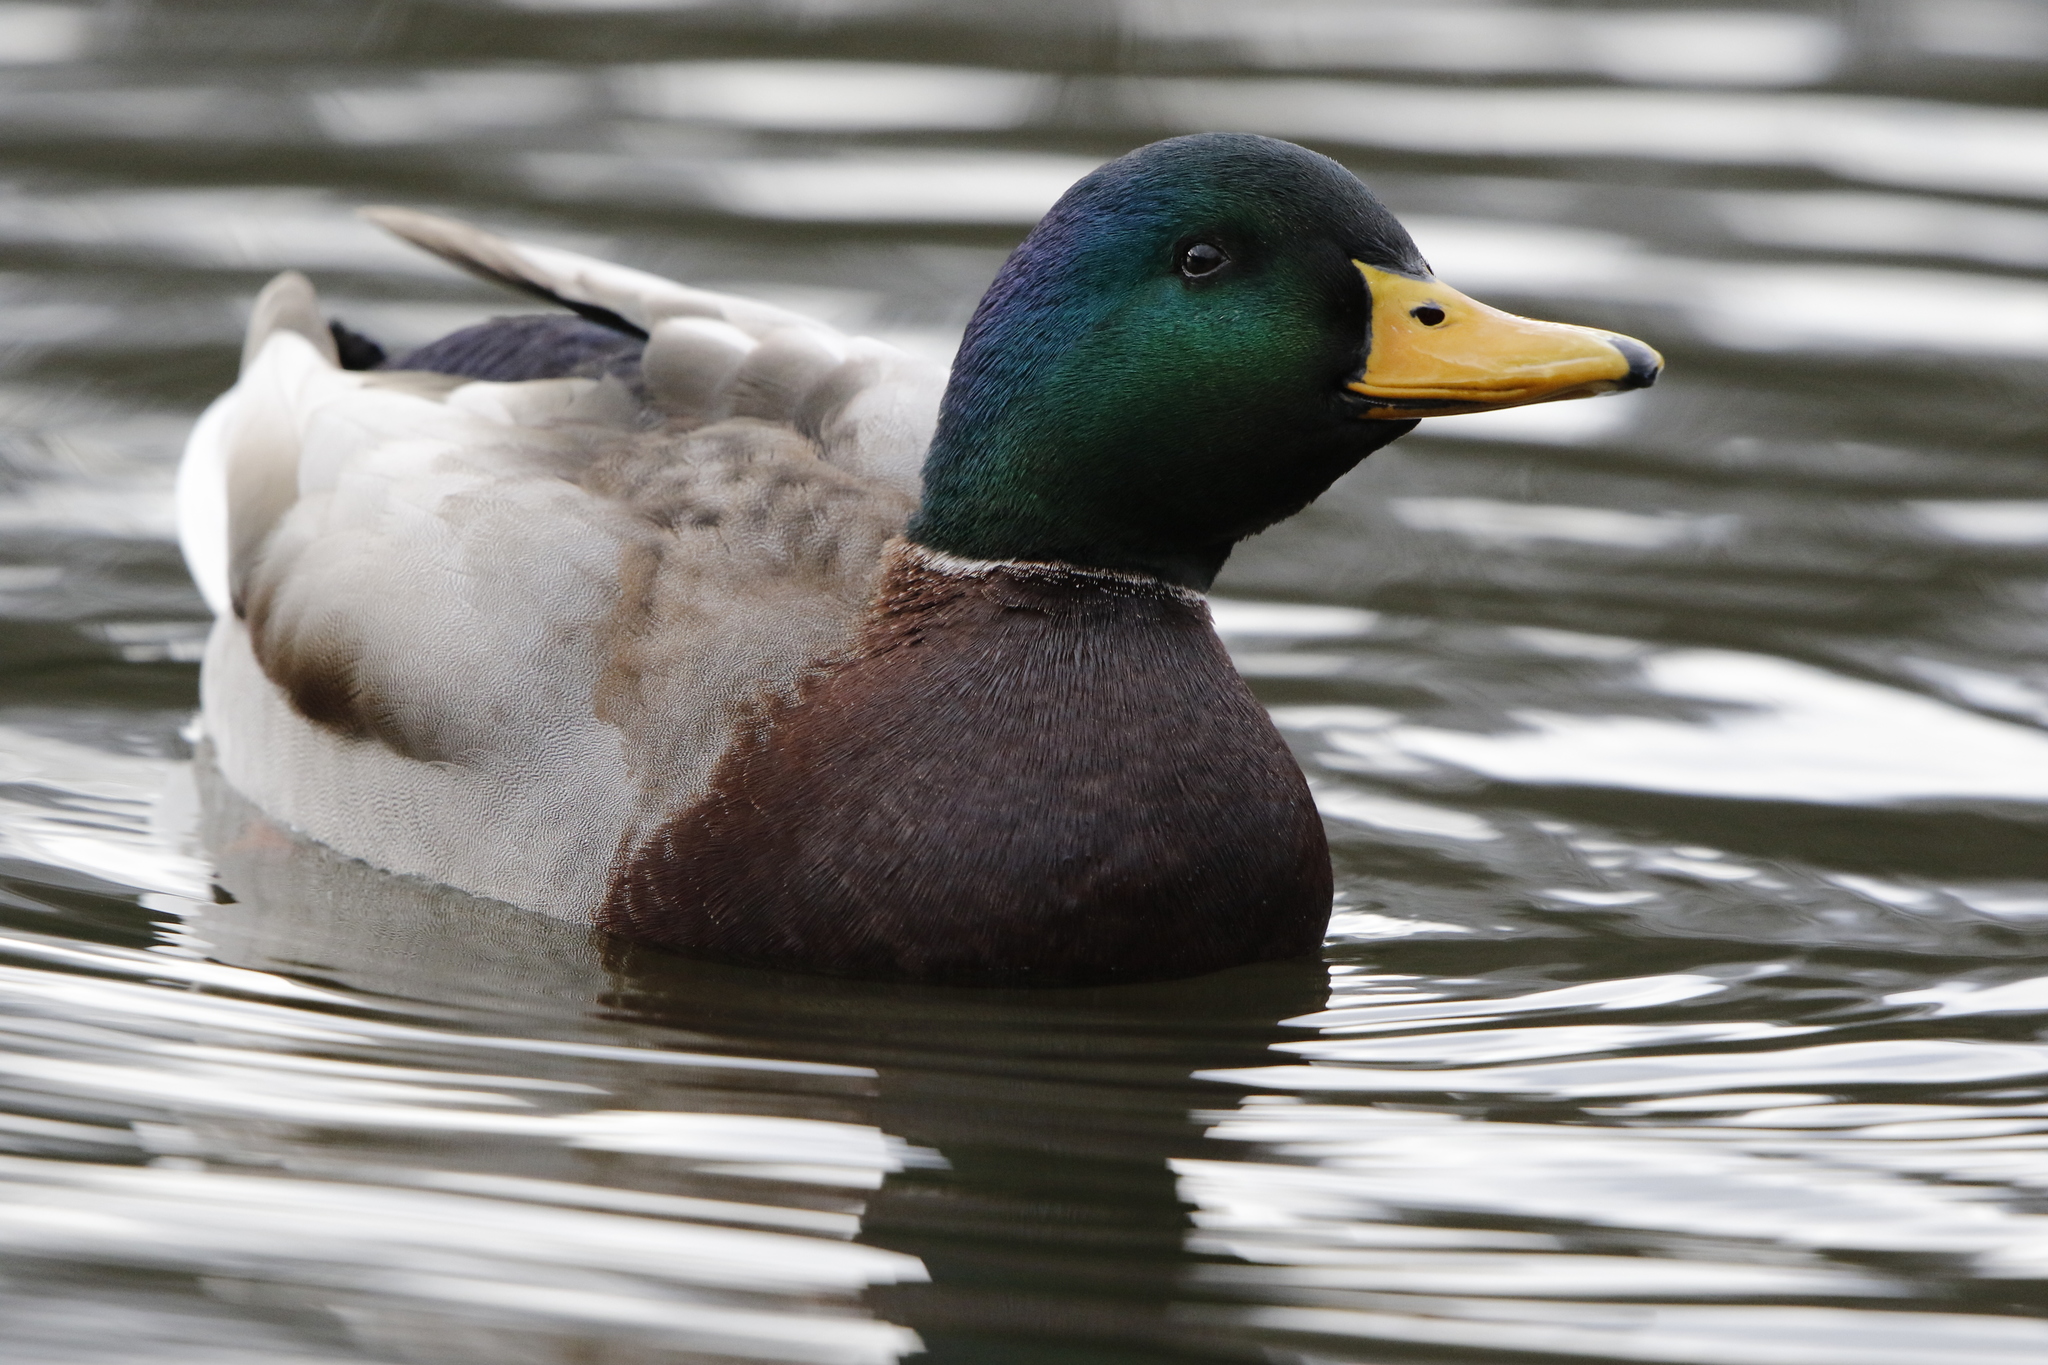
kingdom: Animalia
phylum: Chordata
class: Aves
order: Anseriformes
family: Anatidae
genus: Anas
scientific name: Anas platyrhynchos
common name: Mallard
